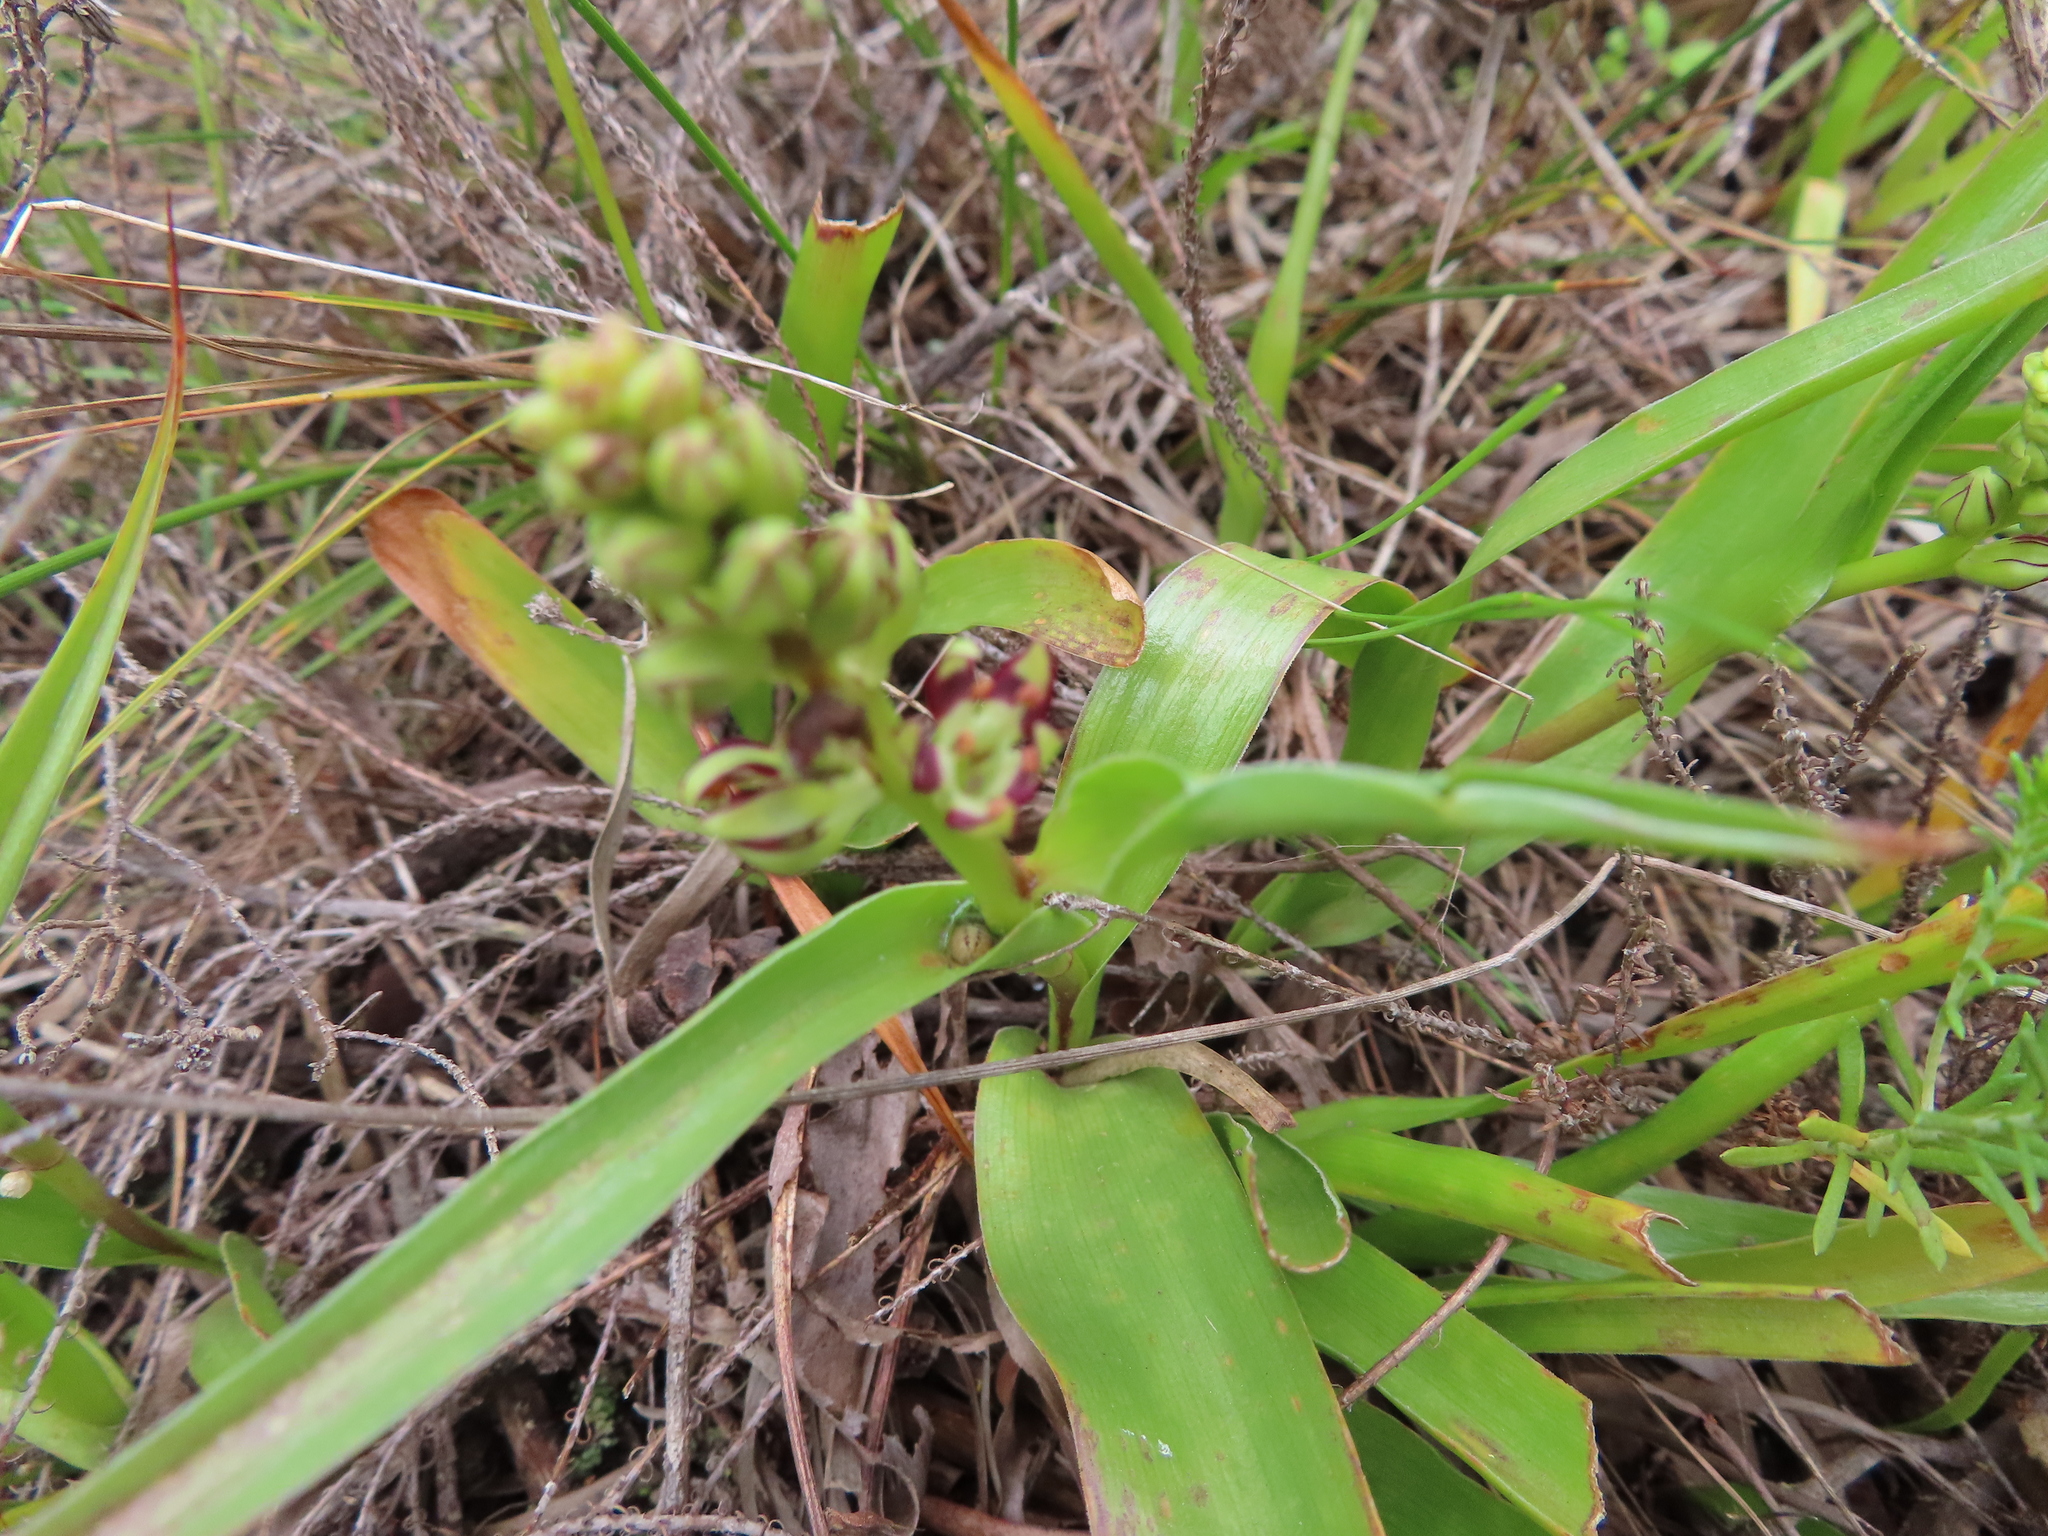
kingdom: Plantae
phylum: Tracheophyta
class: Liliopsida
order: Liliales
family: Colchicaceae
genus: Wurmbea
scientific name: Wurmbea variabilis
